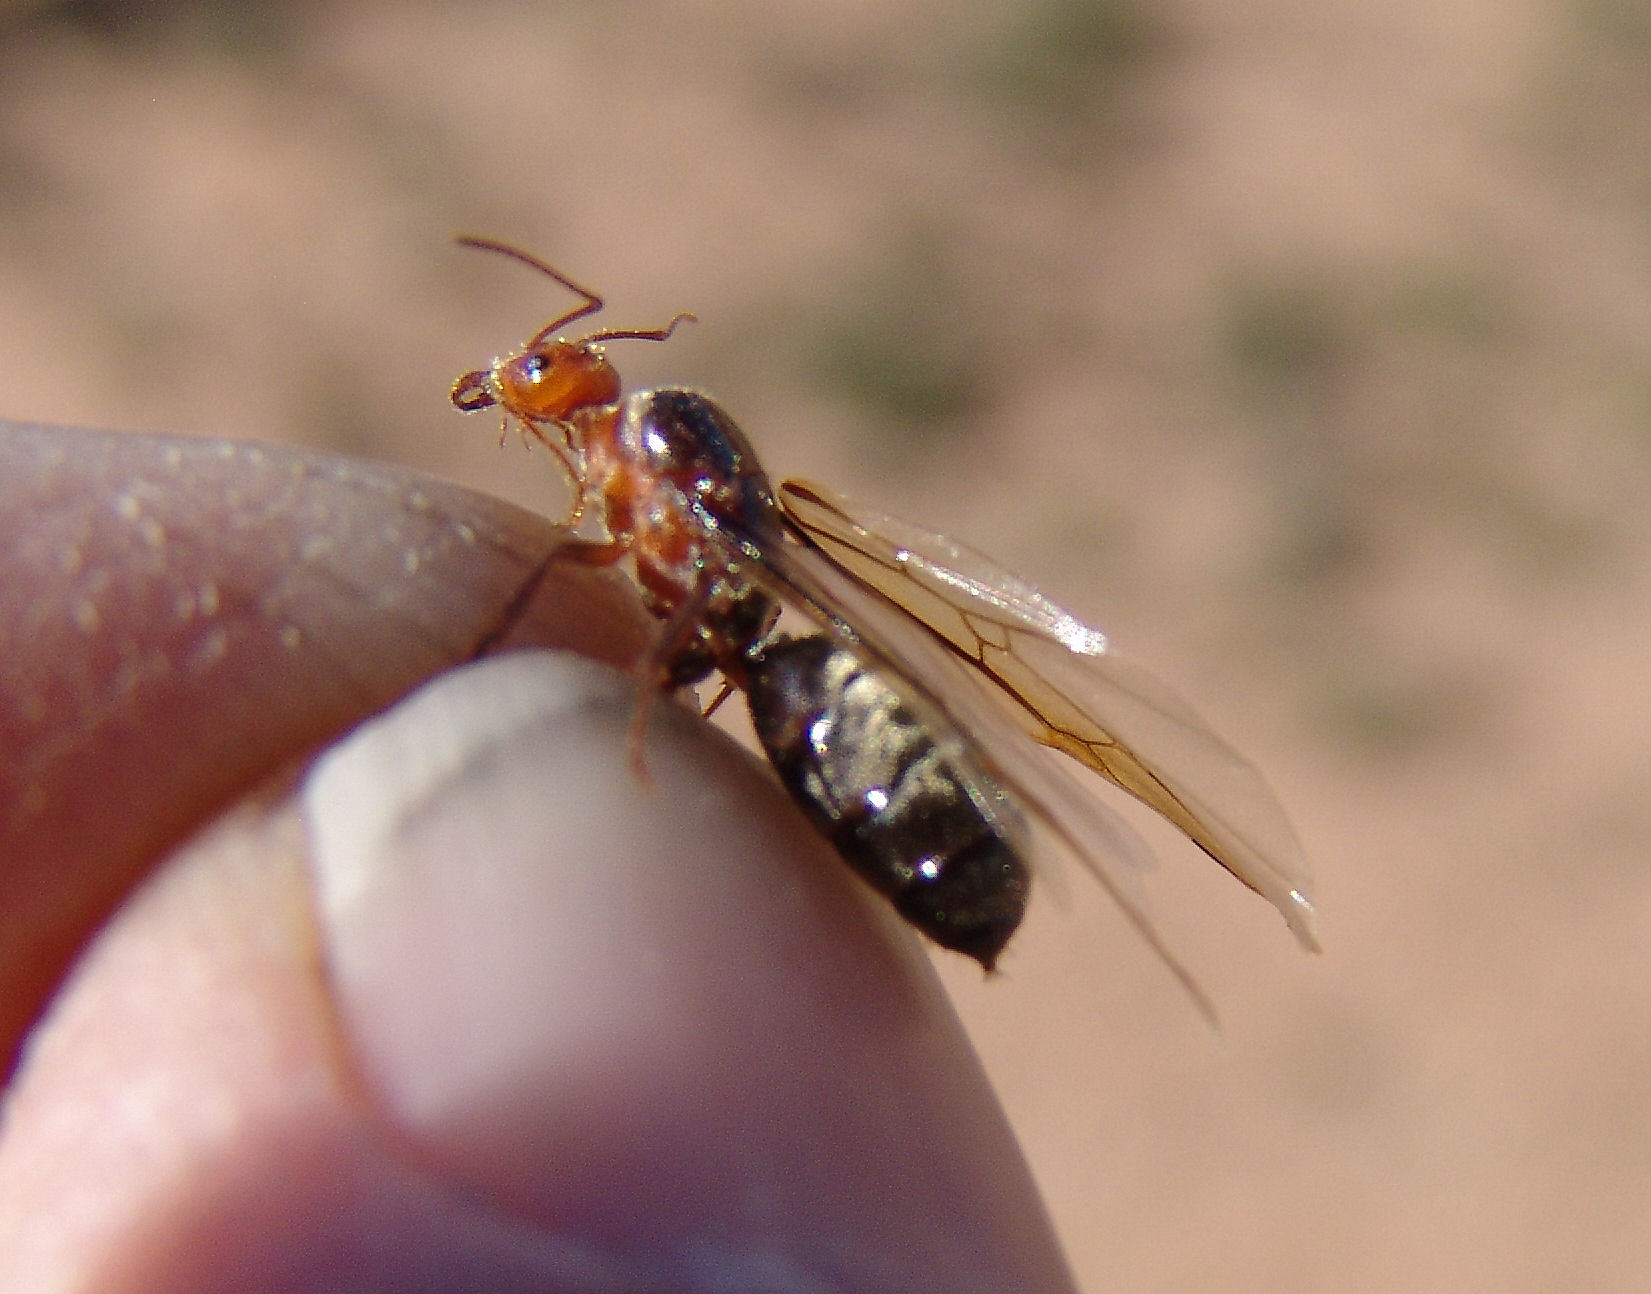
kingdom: Animalia
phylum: Arthropoda
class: Insecta
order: Hymenoptera
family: Formicidae
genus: Myrmecocystus
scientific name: Myrmecocystus semirufus
